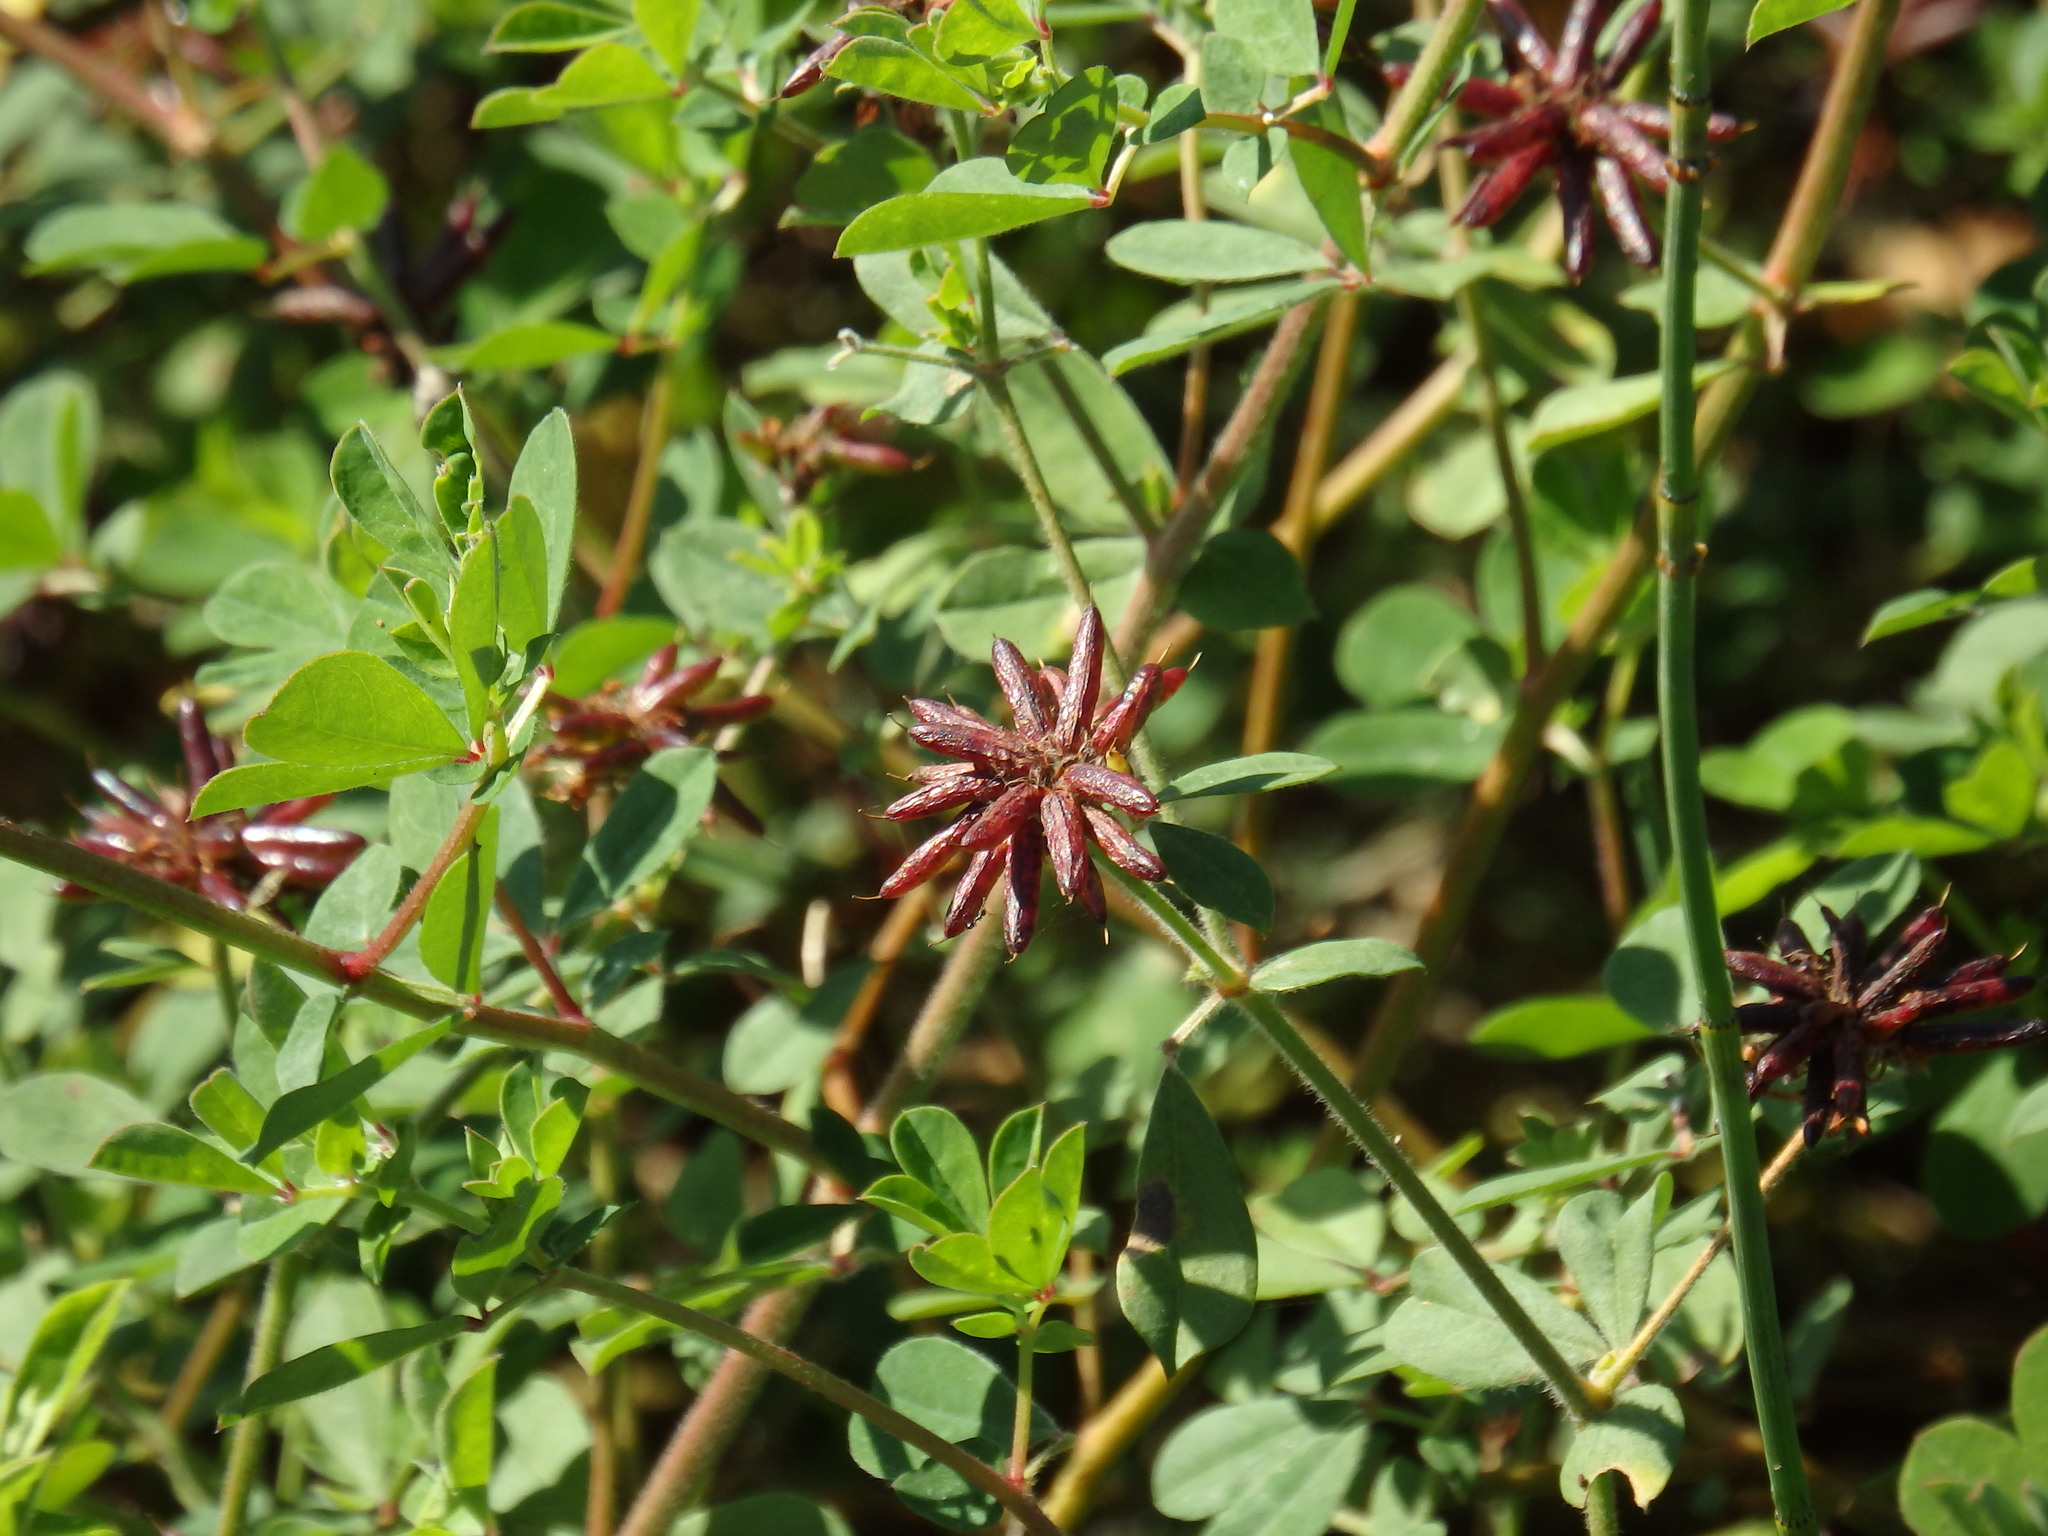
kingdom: Plantae
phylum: Tracheophyta
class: Magnoliopsida
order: Fabales
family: Fabaceae
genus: Lotus
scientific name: Lotus rectus
